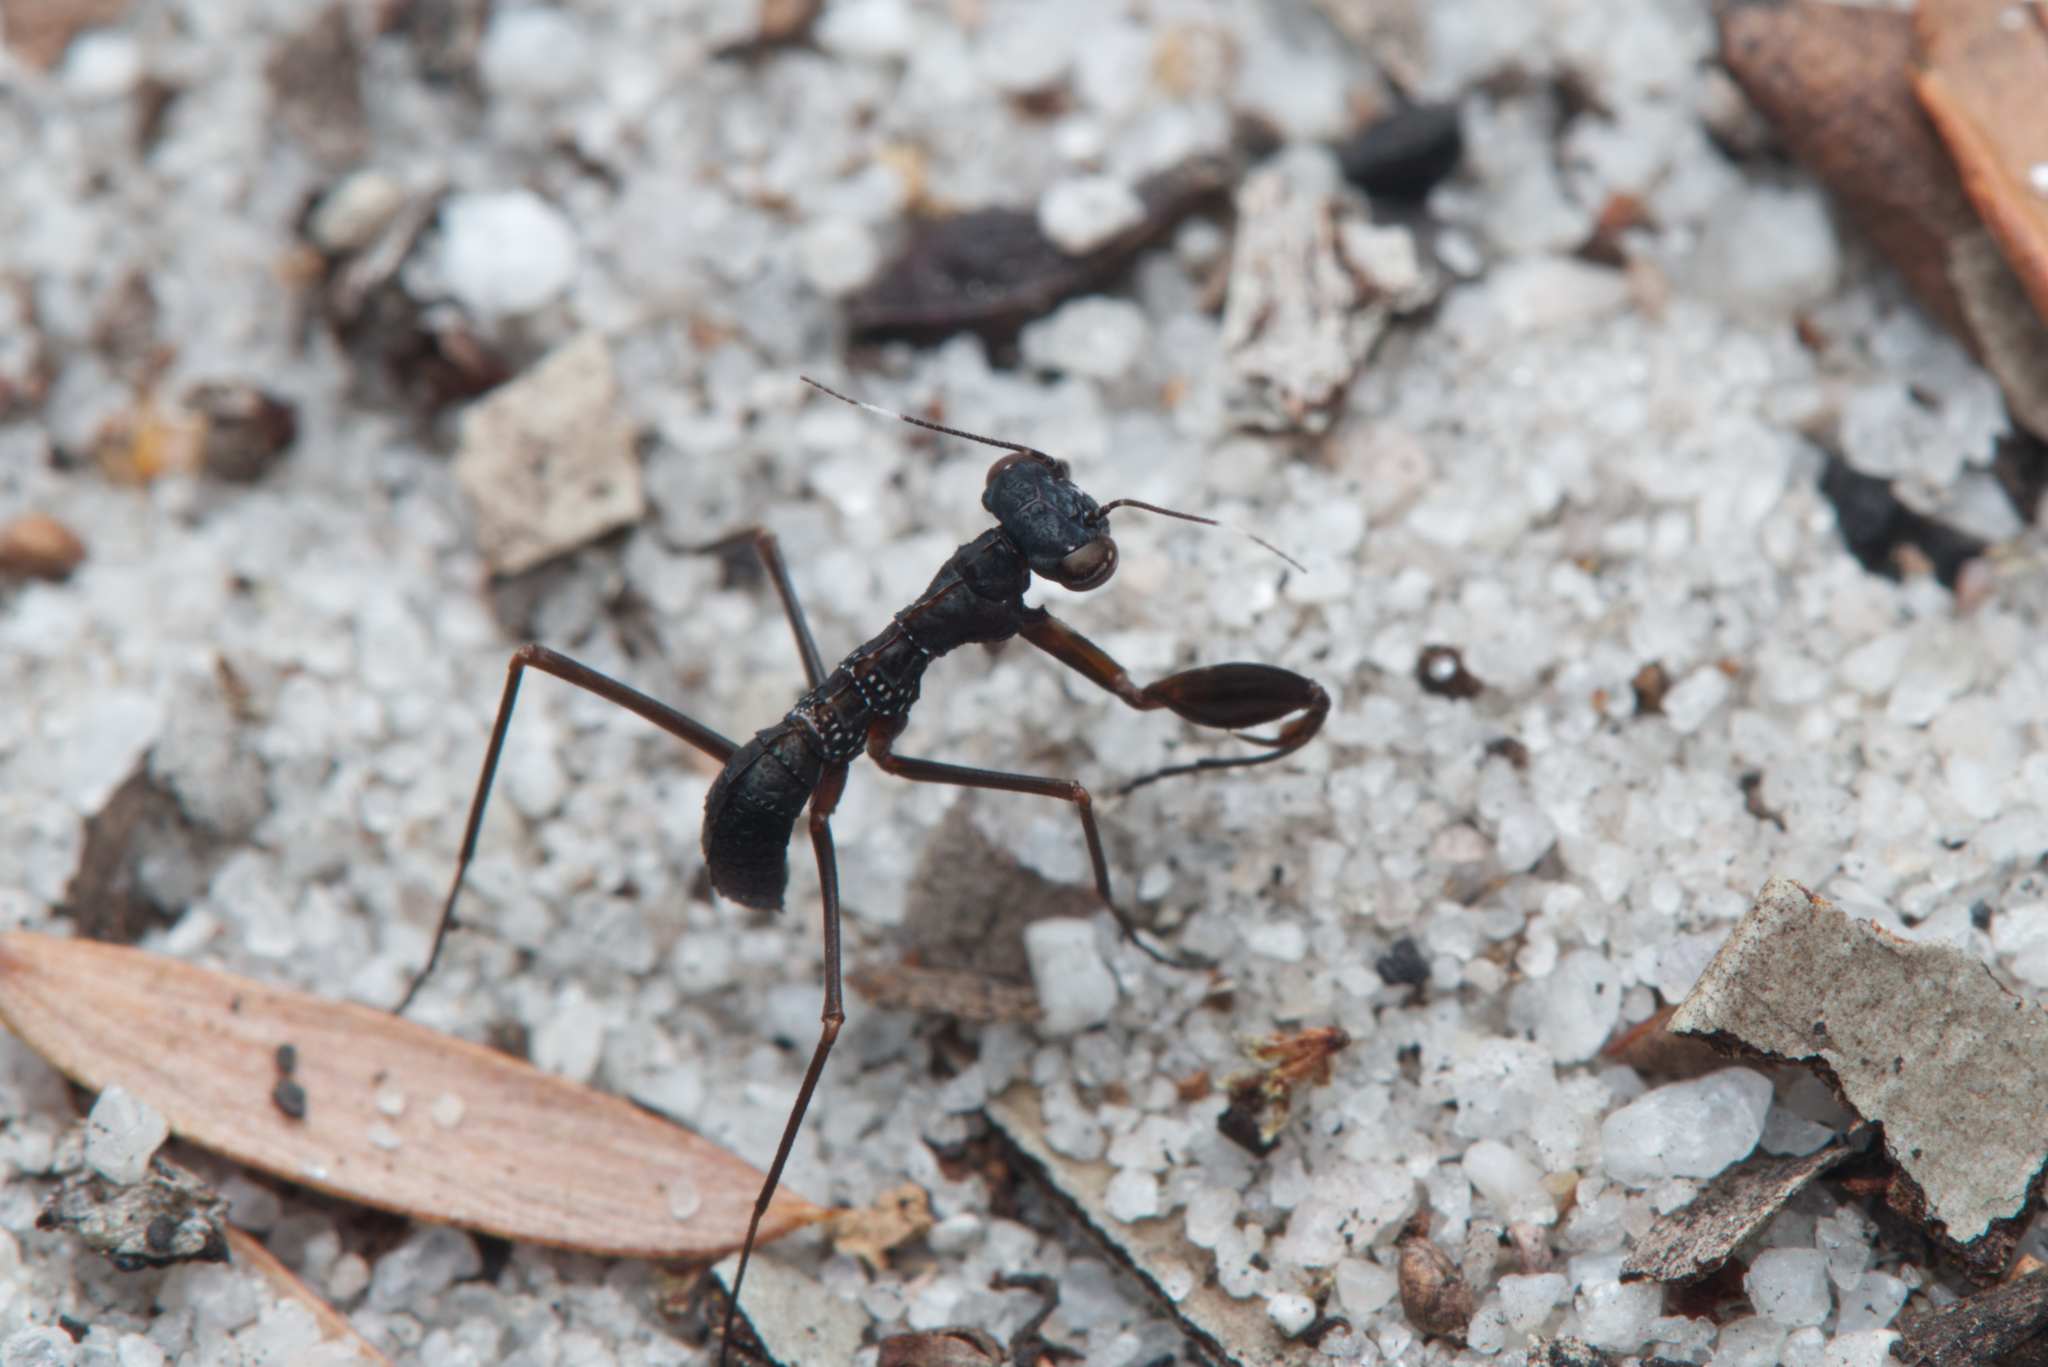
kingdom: Animalia
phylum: Arthropoda
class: Insecta
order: Mantodea
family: Nanomantidae
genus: Nesoxypilus
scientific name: Nesoxypilus albomaculatus
